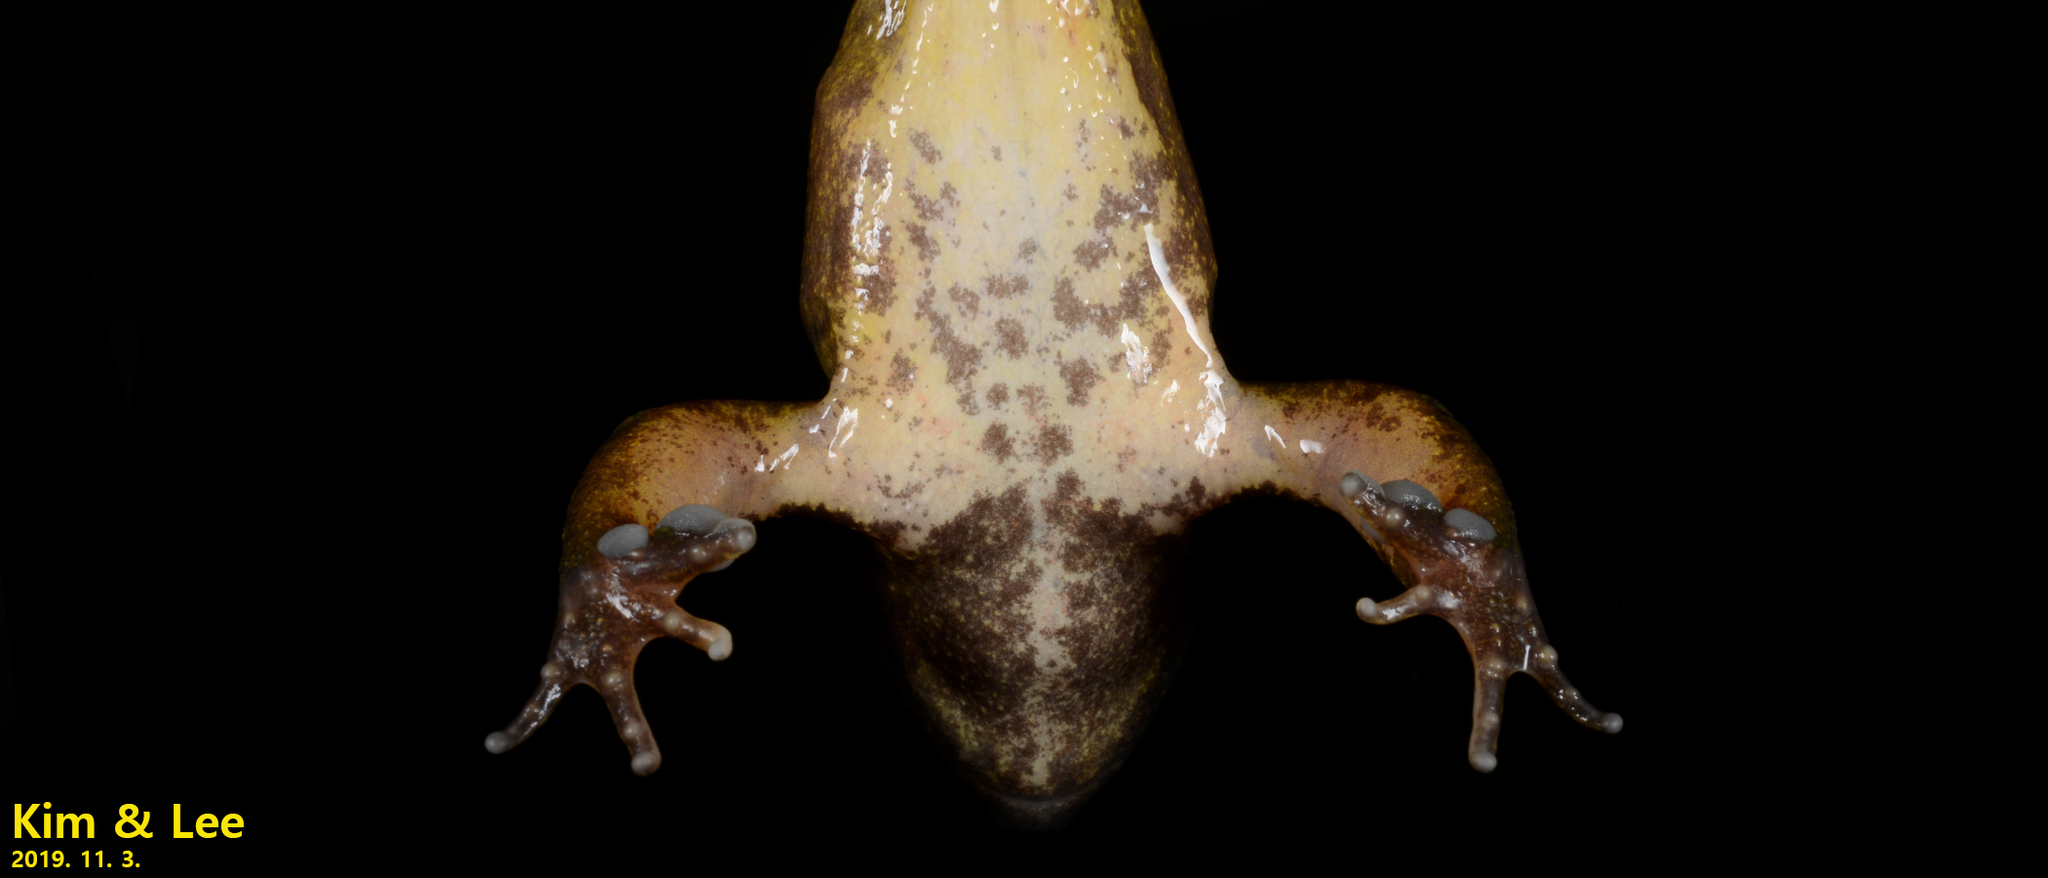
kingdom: Animalia
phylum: Chordata
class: Amphibia
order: Anura
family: Ranidae
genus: Rana
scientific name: Rana huanrenensis
